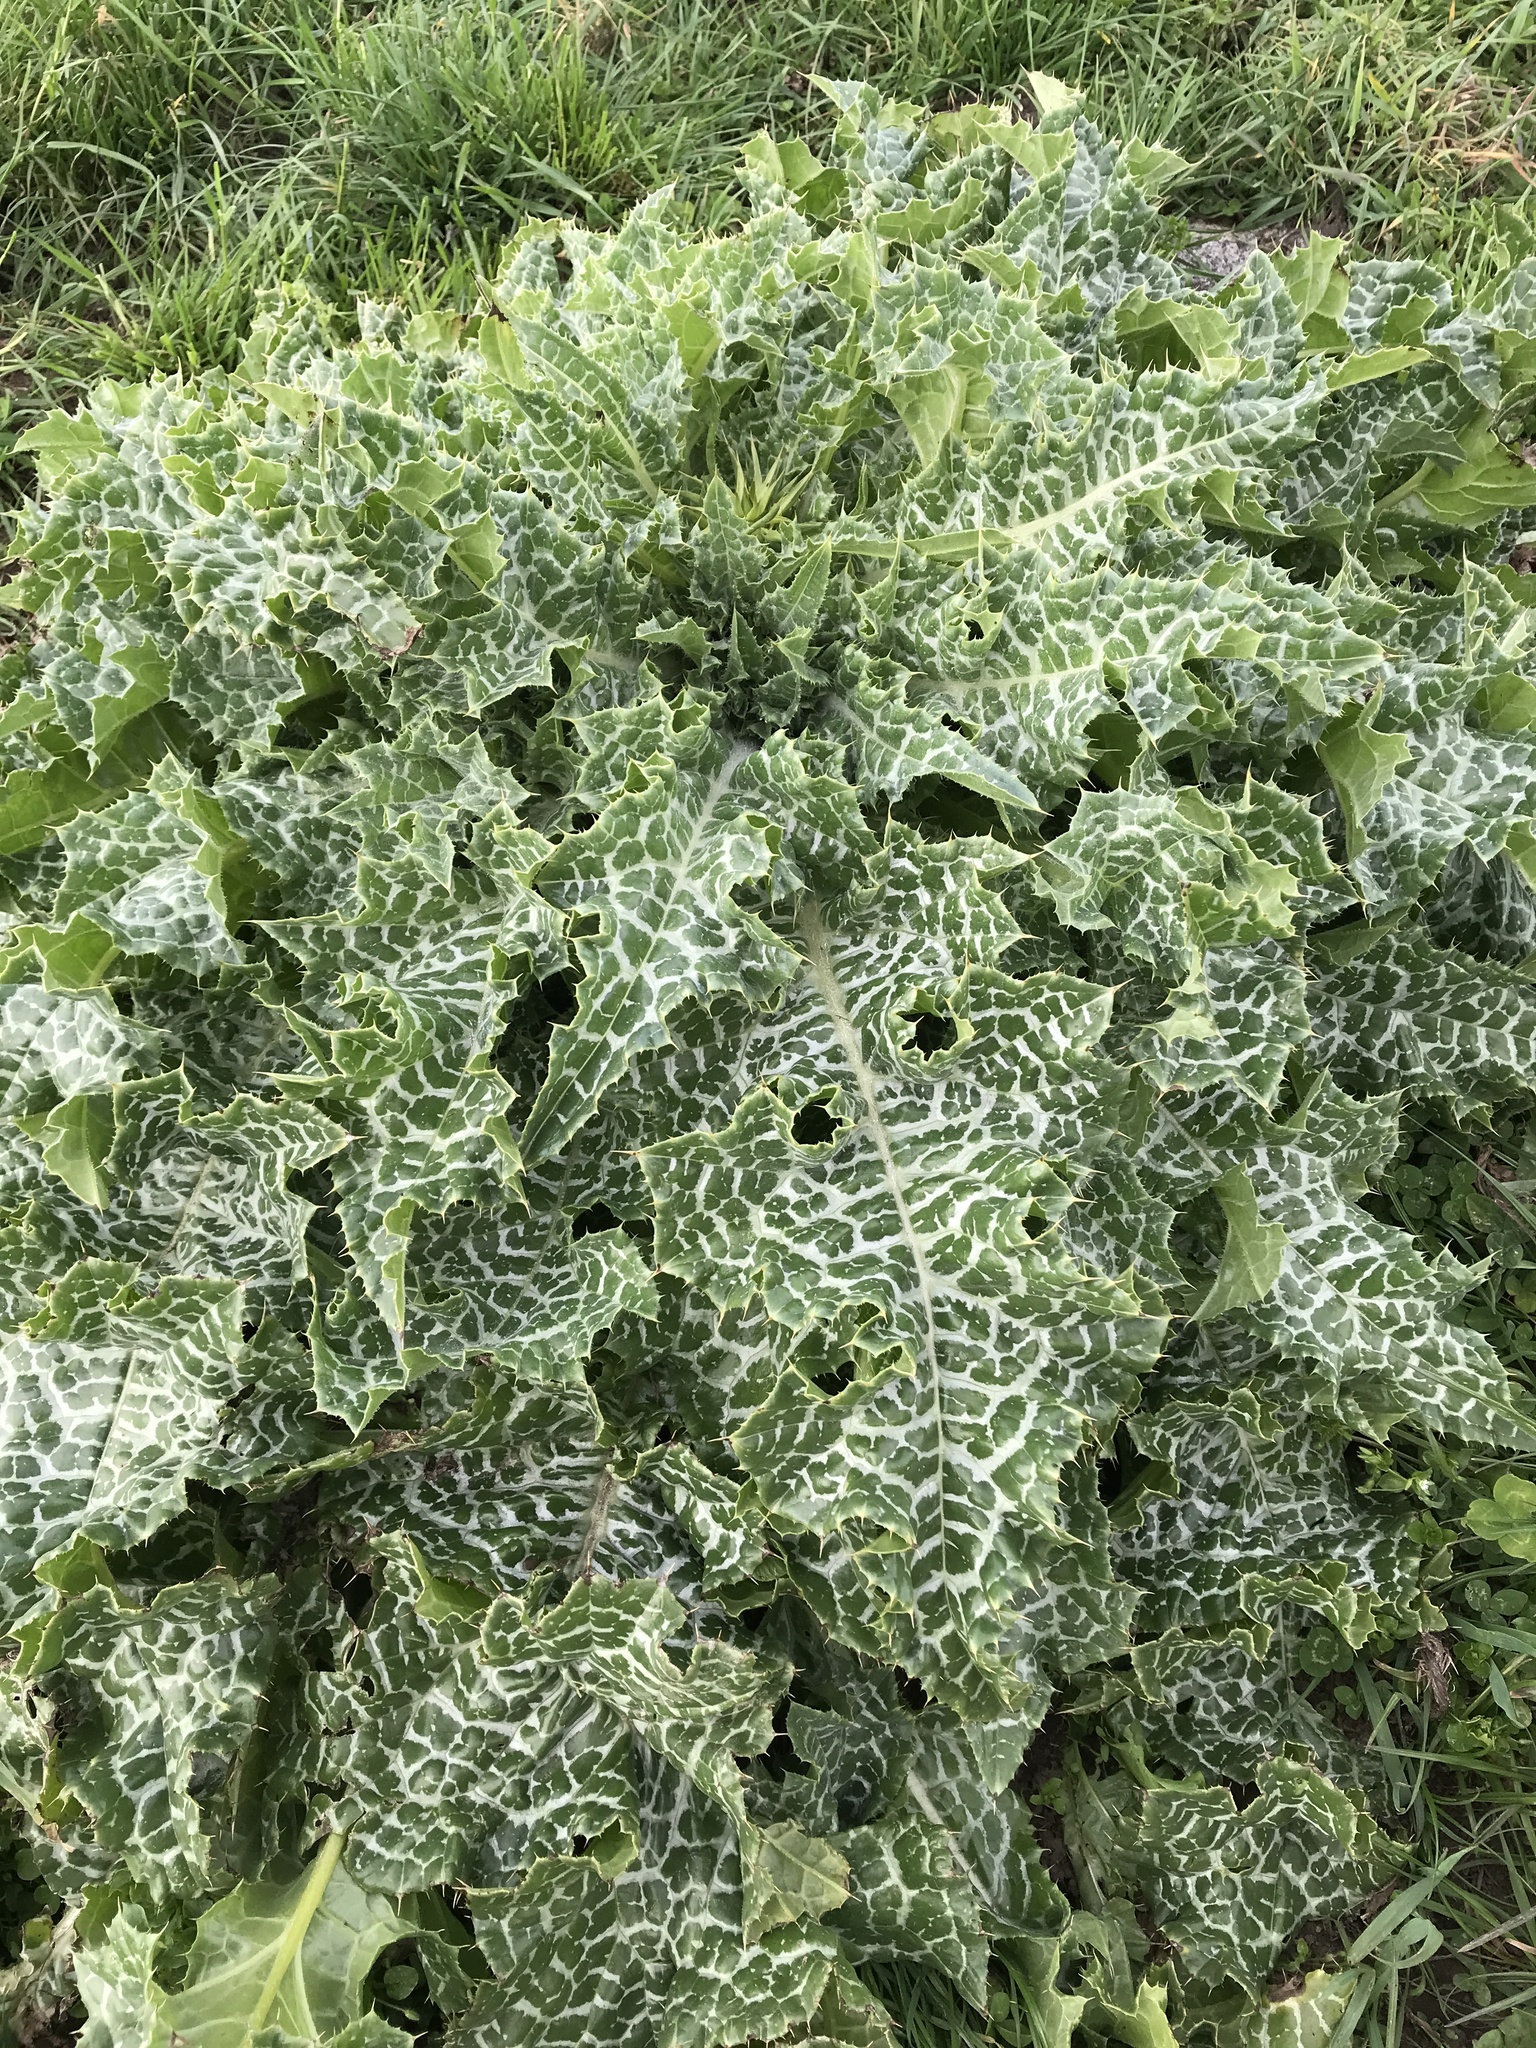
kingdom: Plantae
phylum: Tracheophyta
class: Magnoliopsida
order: Asterales
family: Asteraceae
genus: Silybum
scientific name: Silybum marianum
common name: Milk thistle
